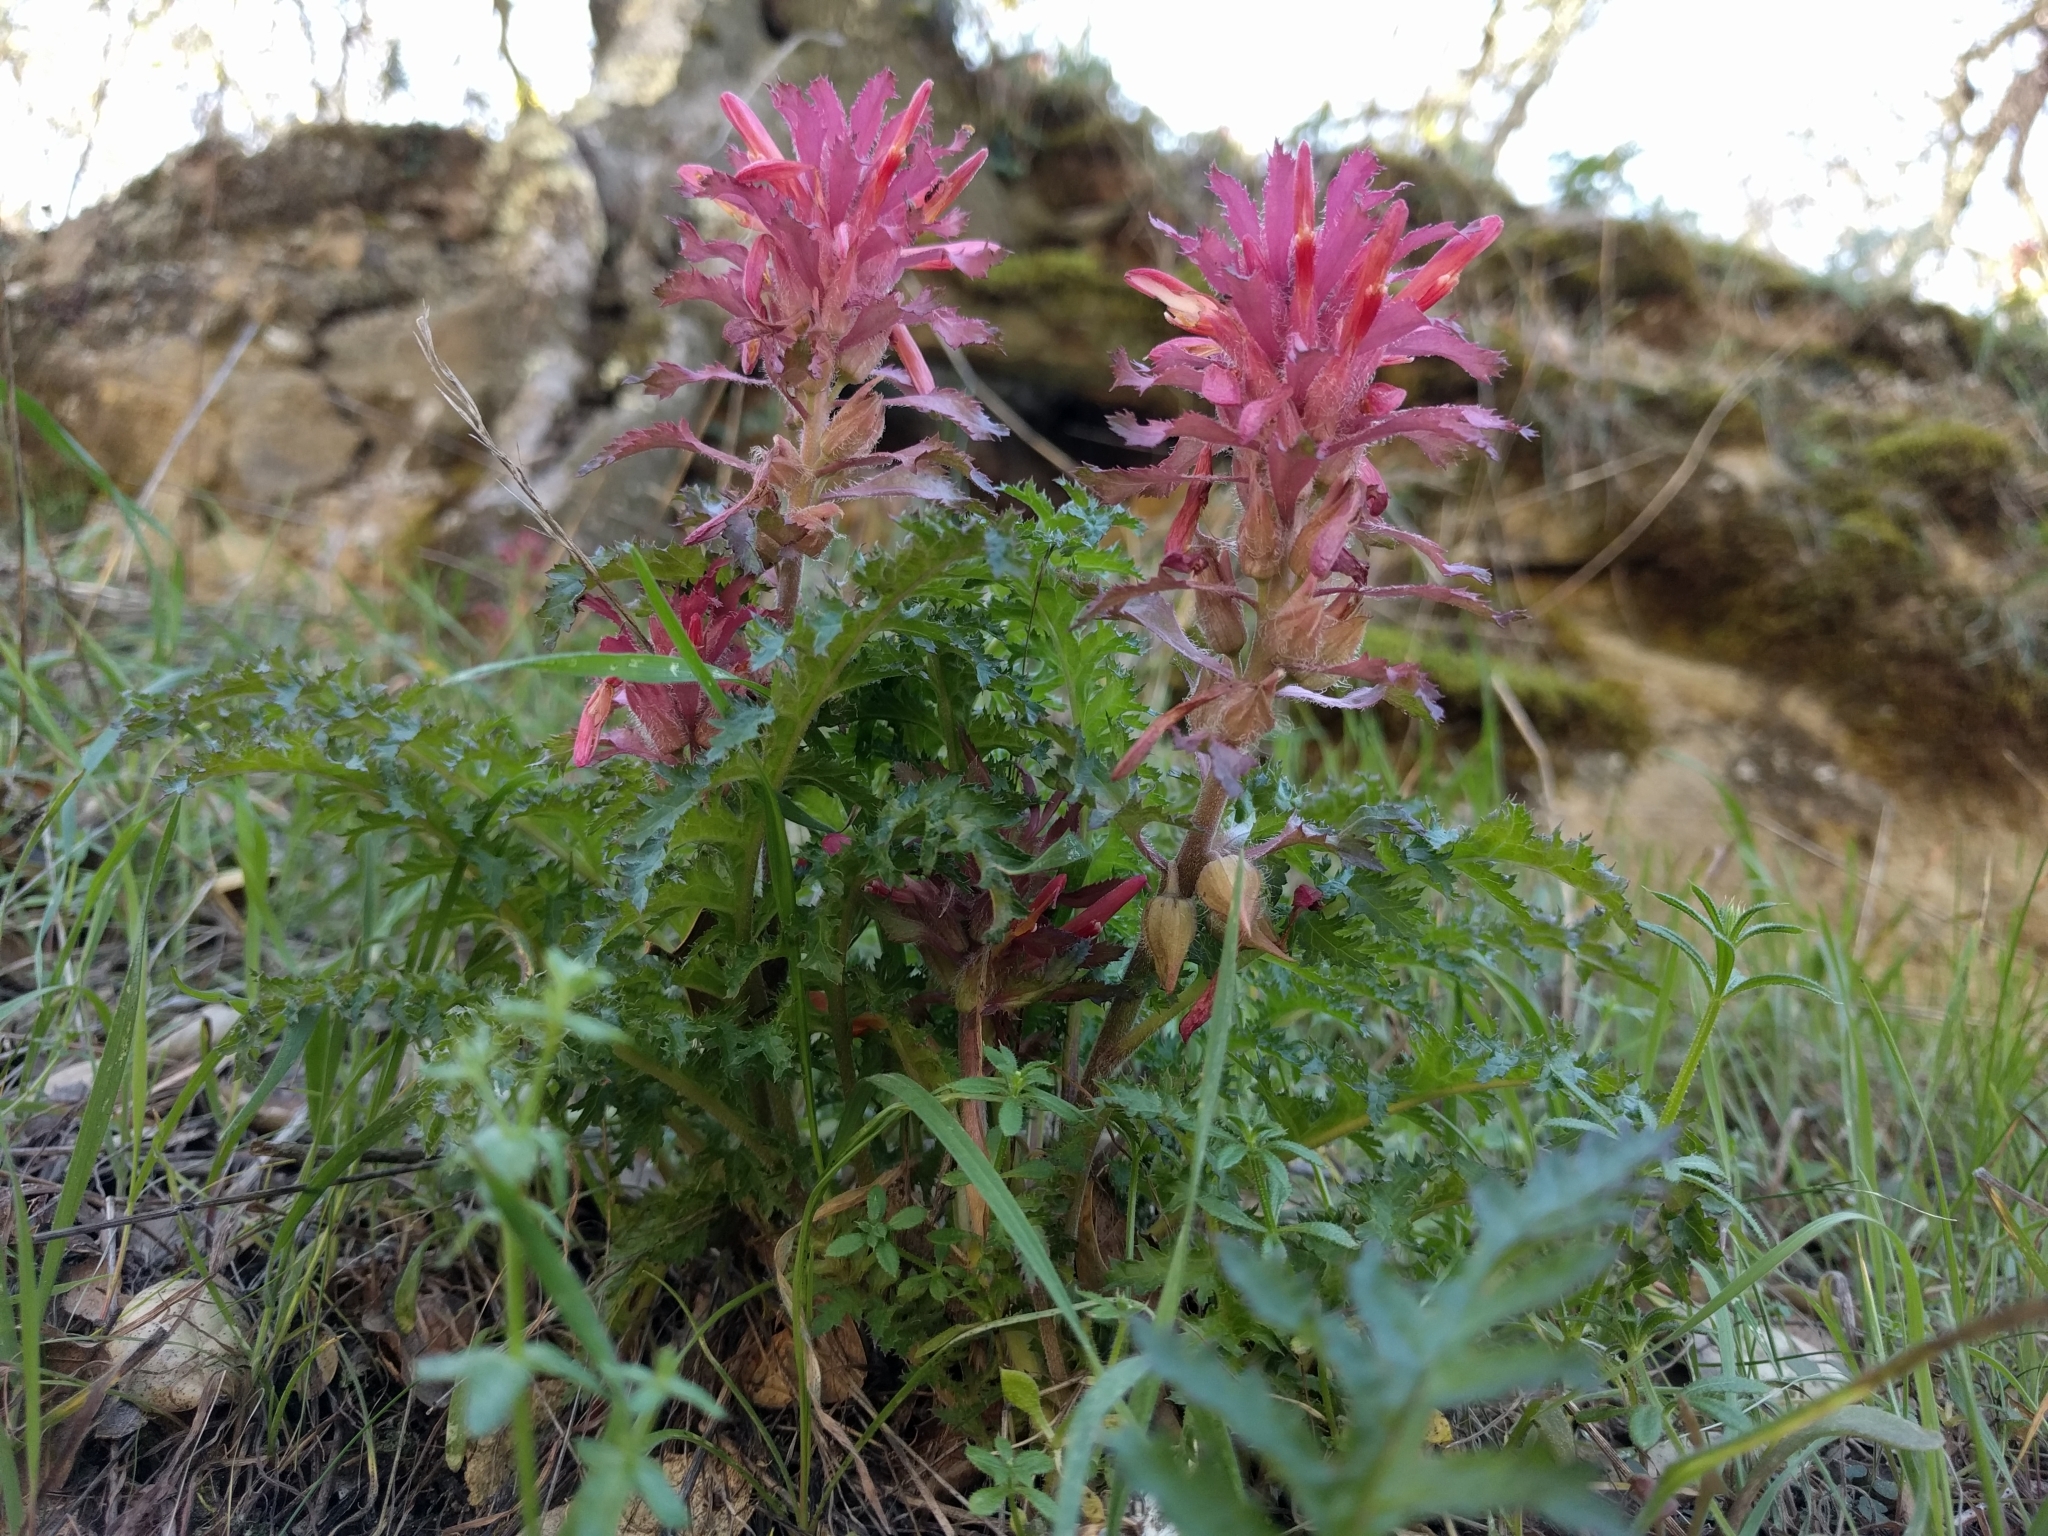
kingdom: Plantae
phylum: Tracheophyta
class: Magnoliopsida
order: Lamiales
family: Orobanchaceae
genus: Pedicularis
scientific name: Pedicularis densiflora
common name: Indian warrior
